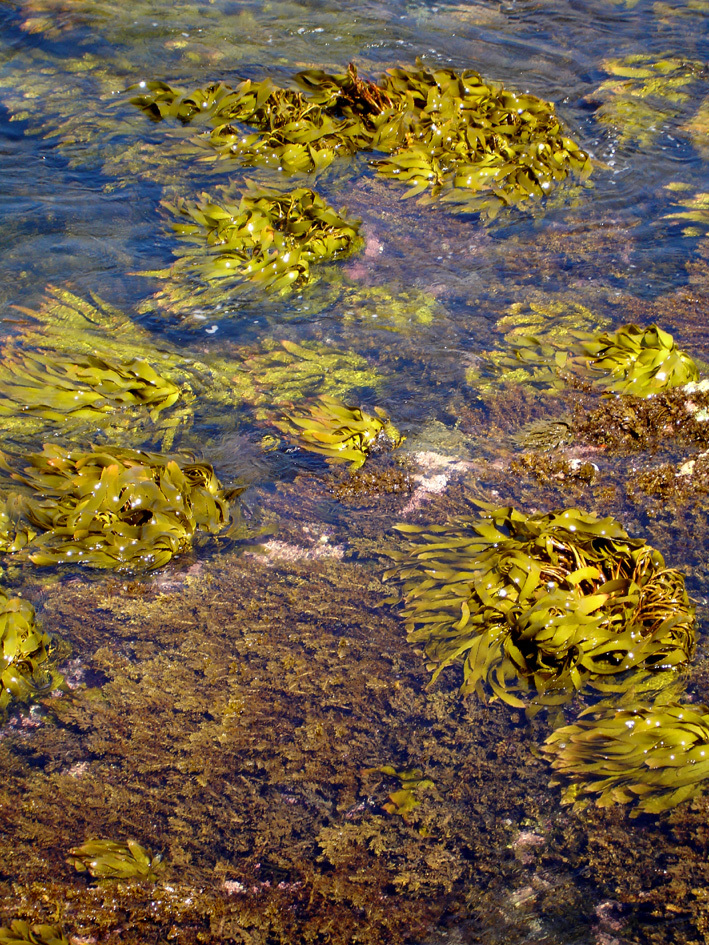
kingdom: Chromista
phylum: Ochrophyta
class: Phaeophyceae
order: Laminariales
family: Lessoniaceae
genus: Lessonia
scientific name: Lessonia tholiformis
